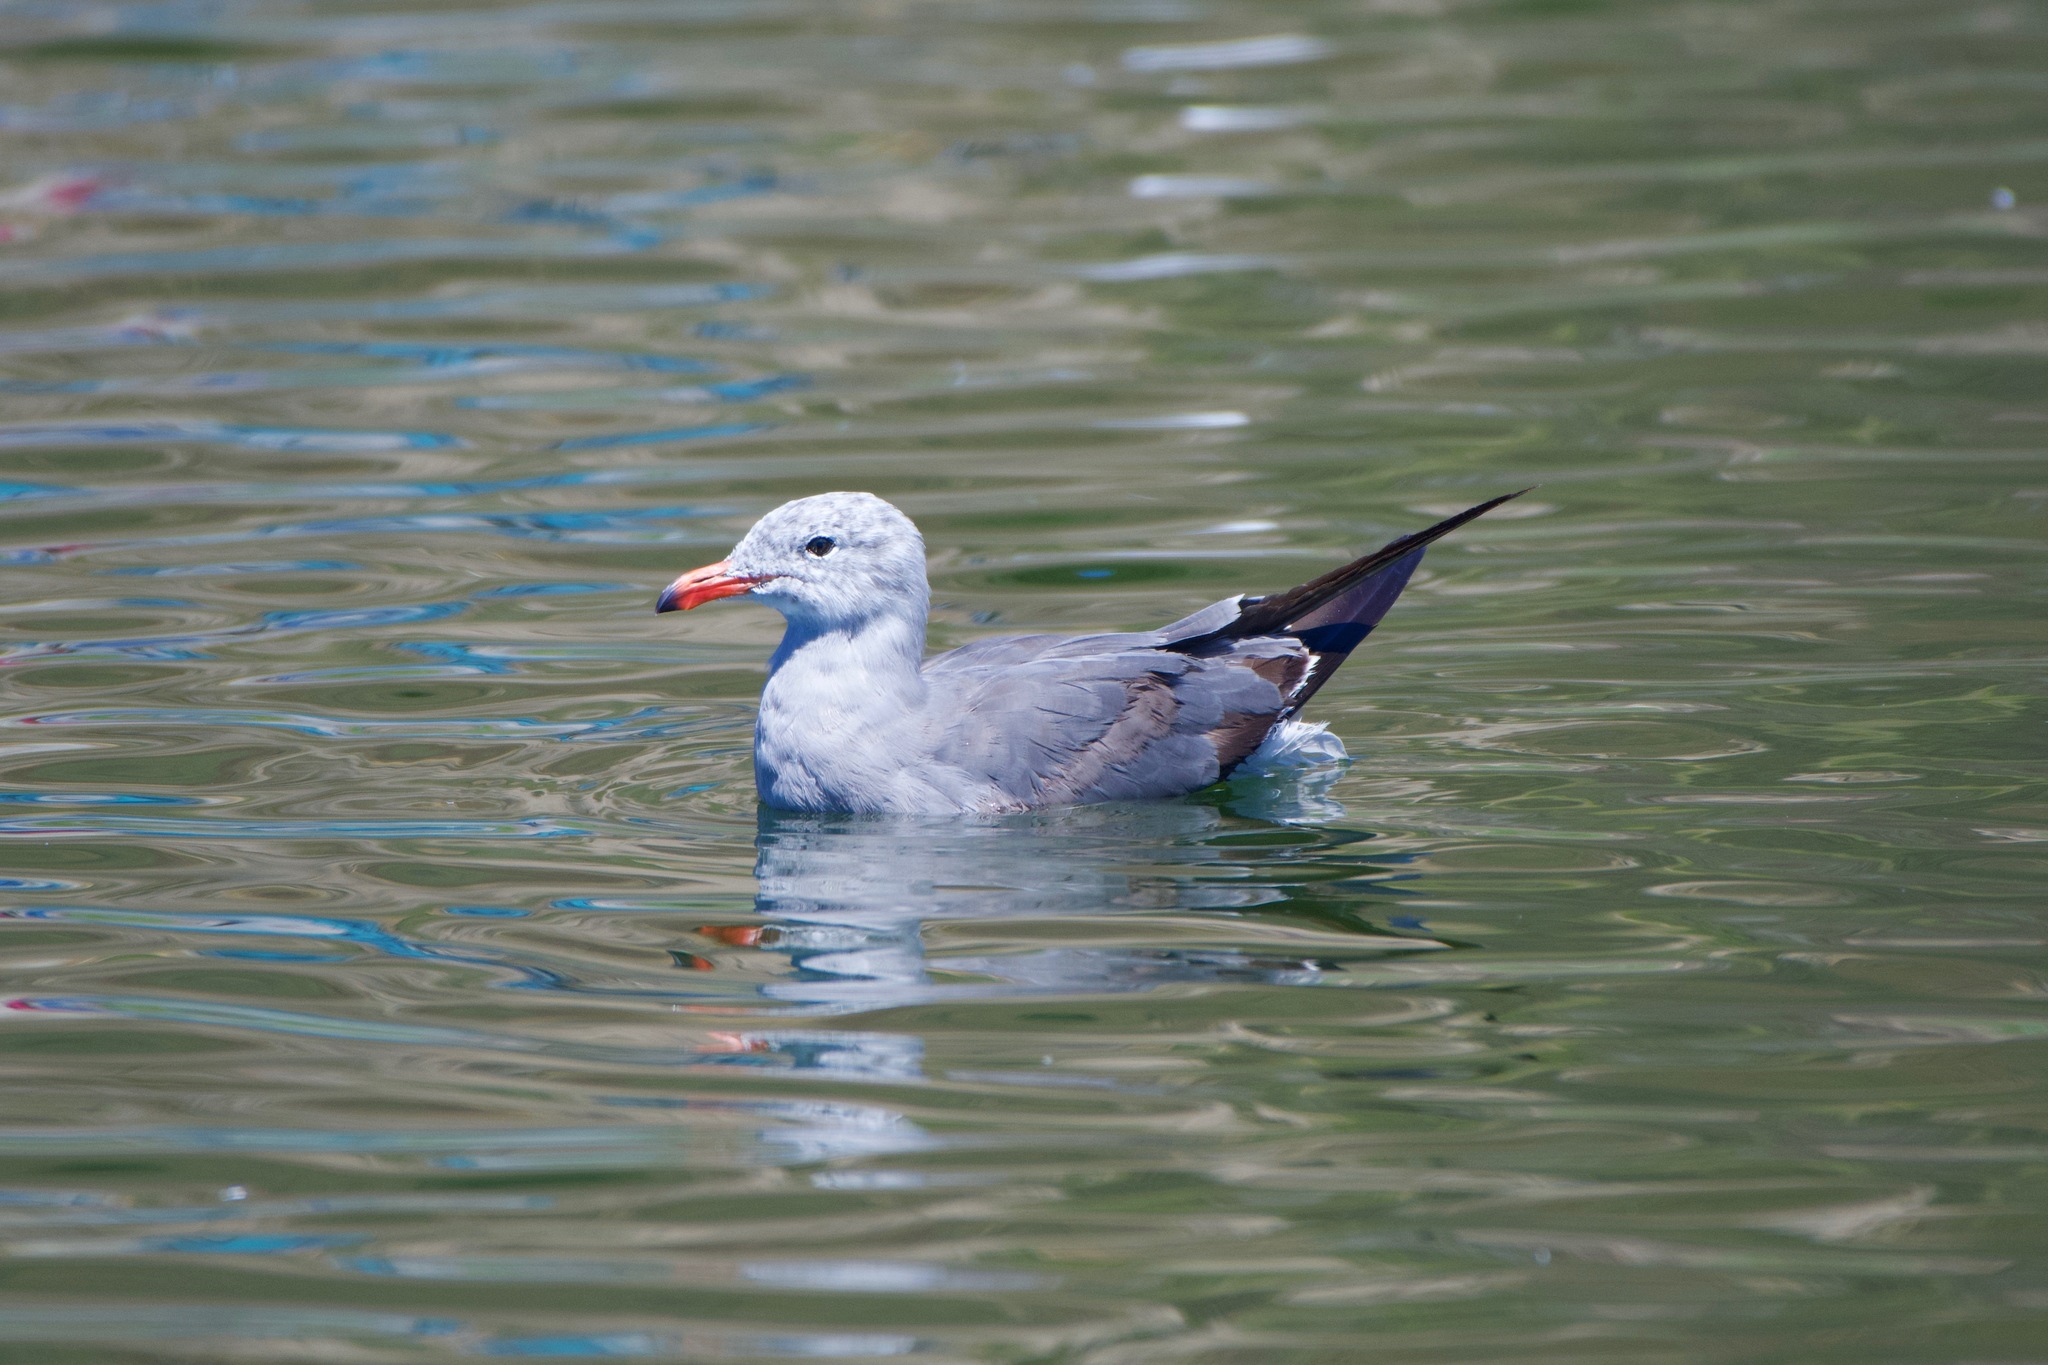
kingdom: Animalia
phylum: Chordata
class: Aves
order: Charadriiformes
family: Laridae
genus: Larus
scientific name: Larus heermanni
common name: Heermann's gull
